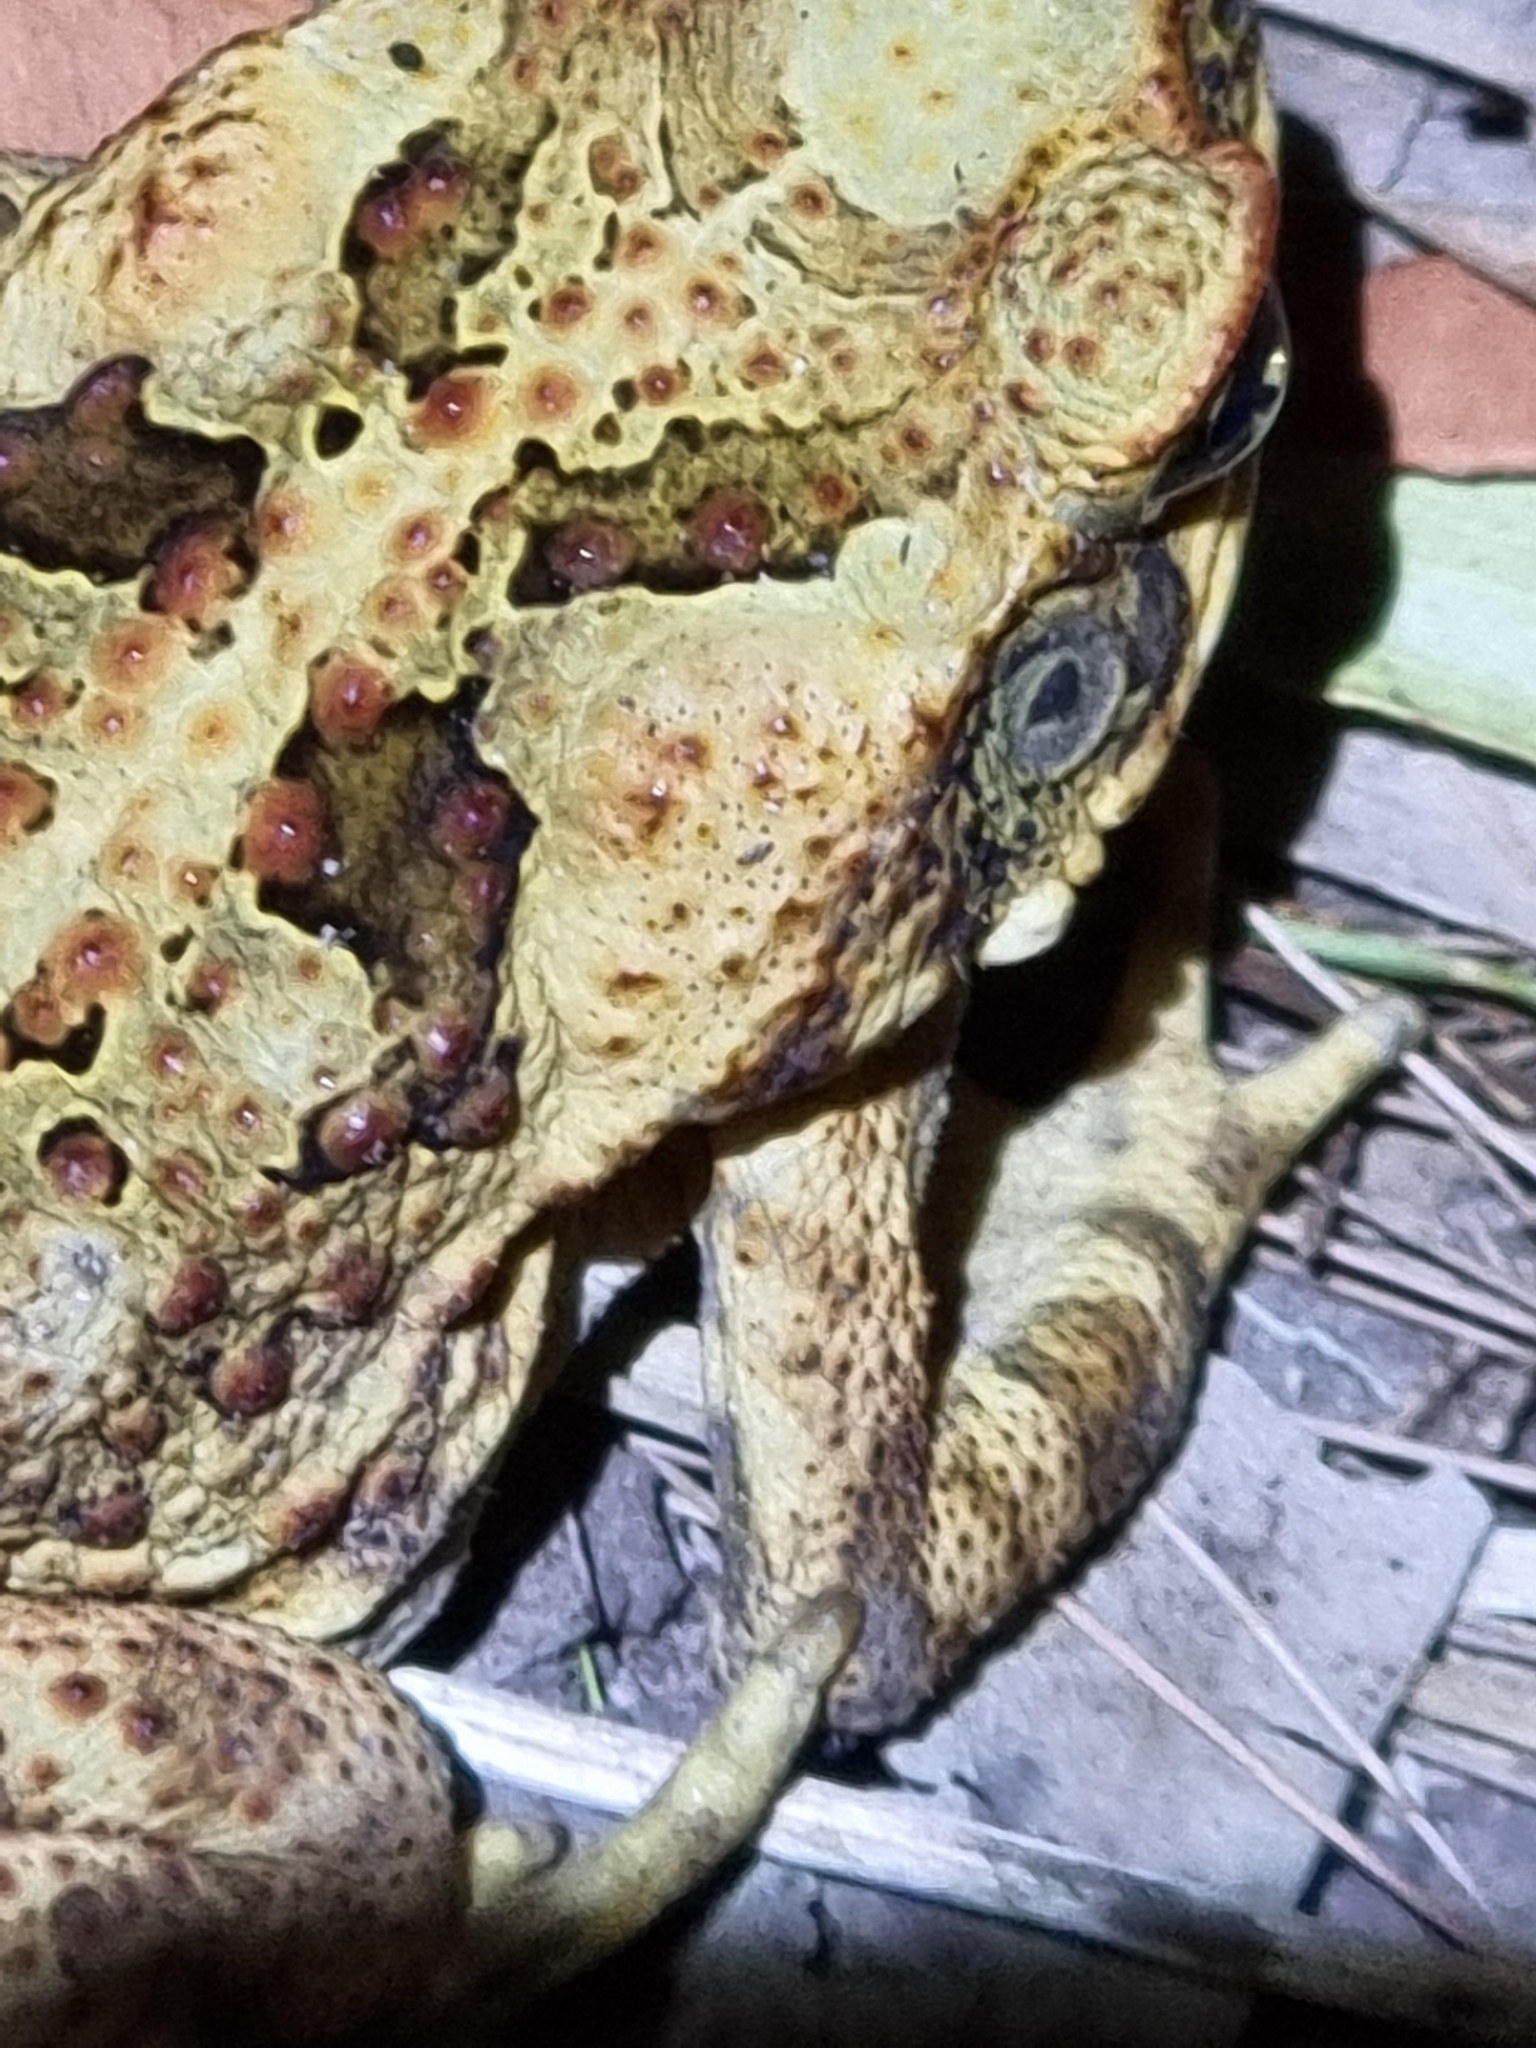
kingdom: Animalia
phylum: Chordata
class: Amphibia
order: Anura
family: Bufonidae
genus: Rhinella
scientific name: Rhinella marina
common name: Cane toad
